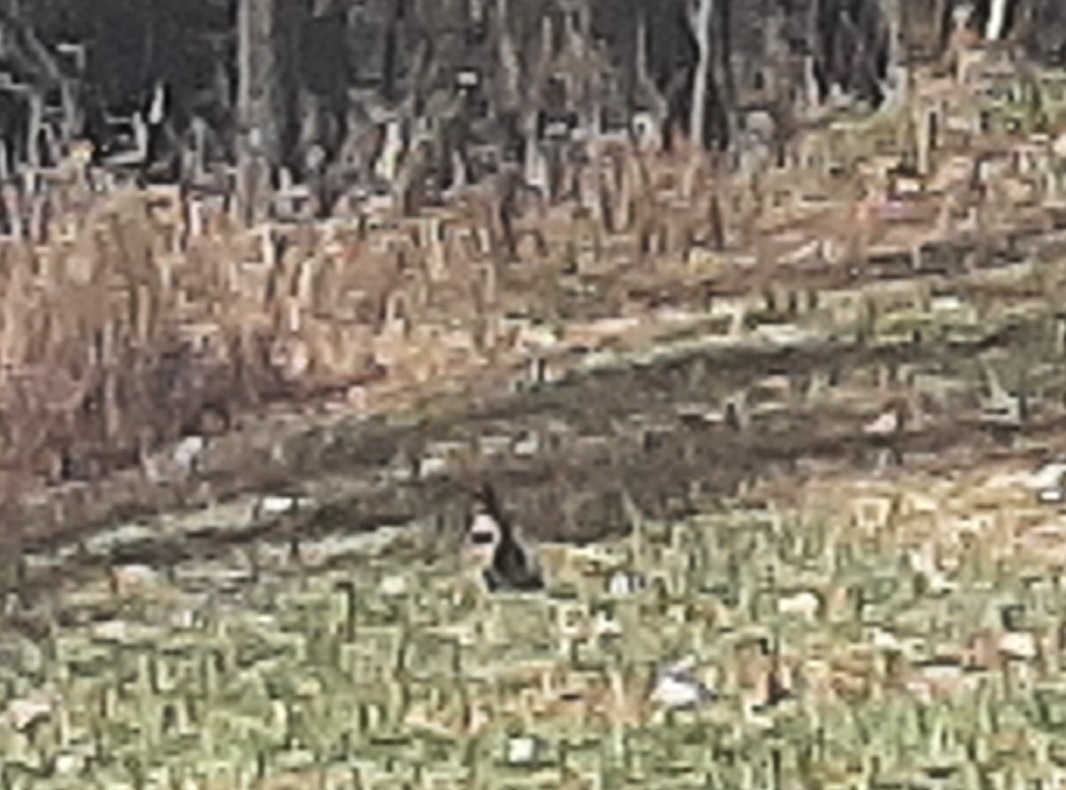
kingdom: Animalia
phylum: Chordata
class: Aves
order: Piciformes
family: Picidae
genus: Colaptes
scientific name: Colaptes auratus
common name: Northern flicker
